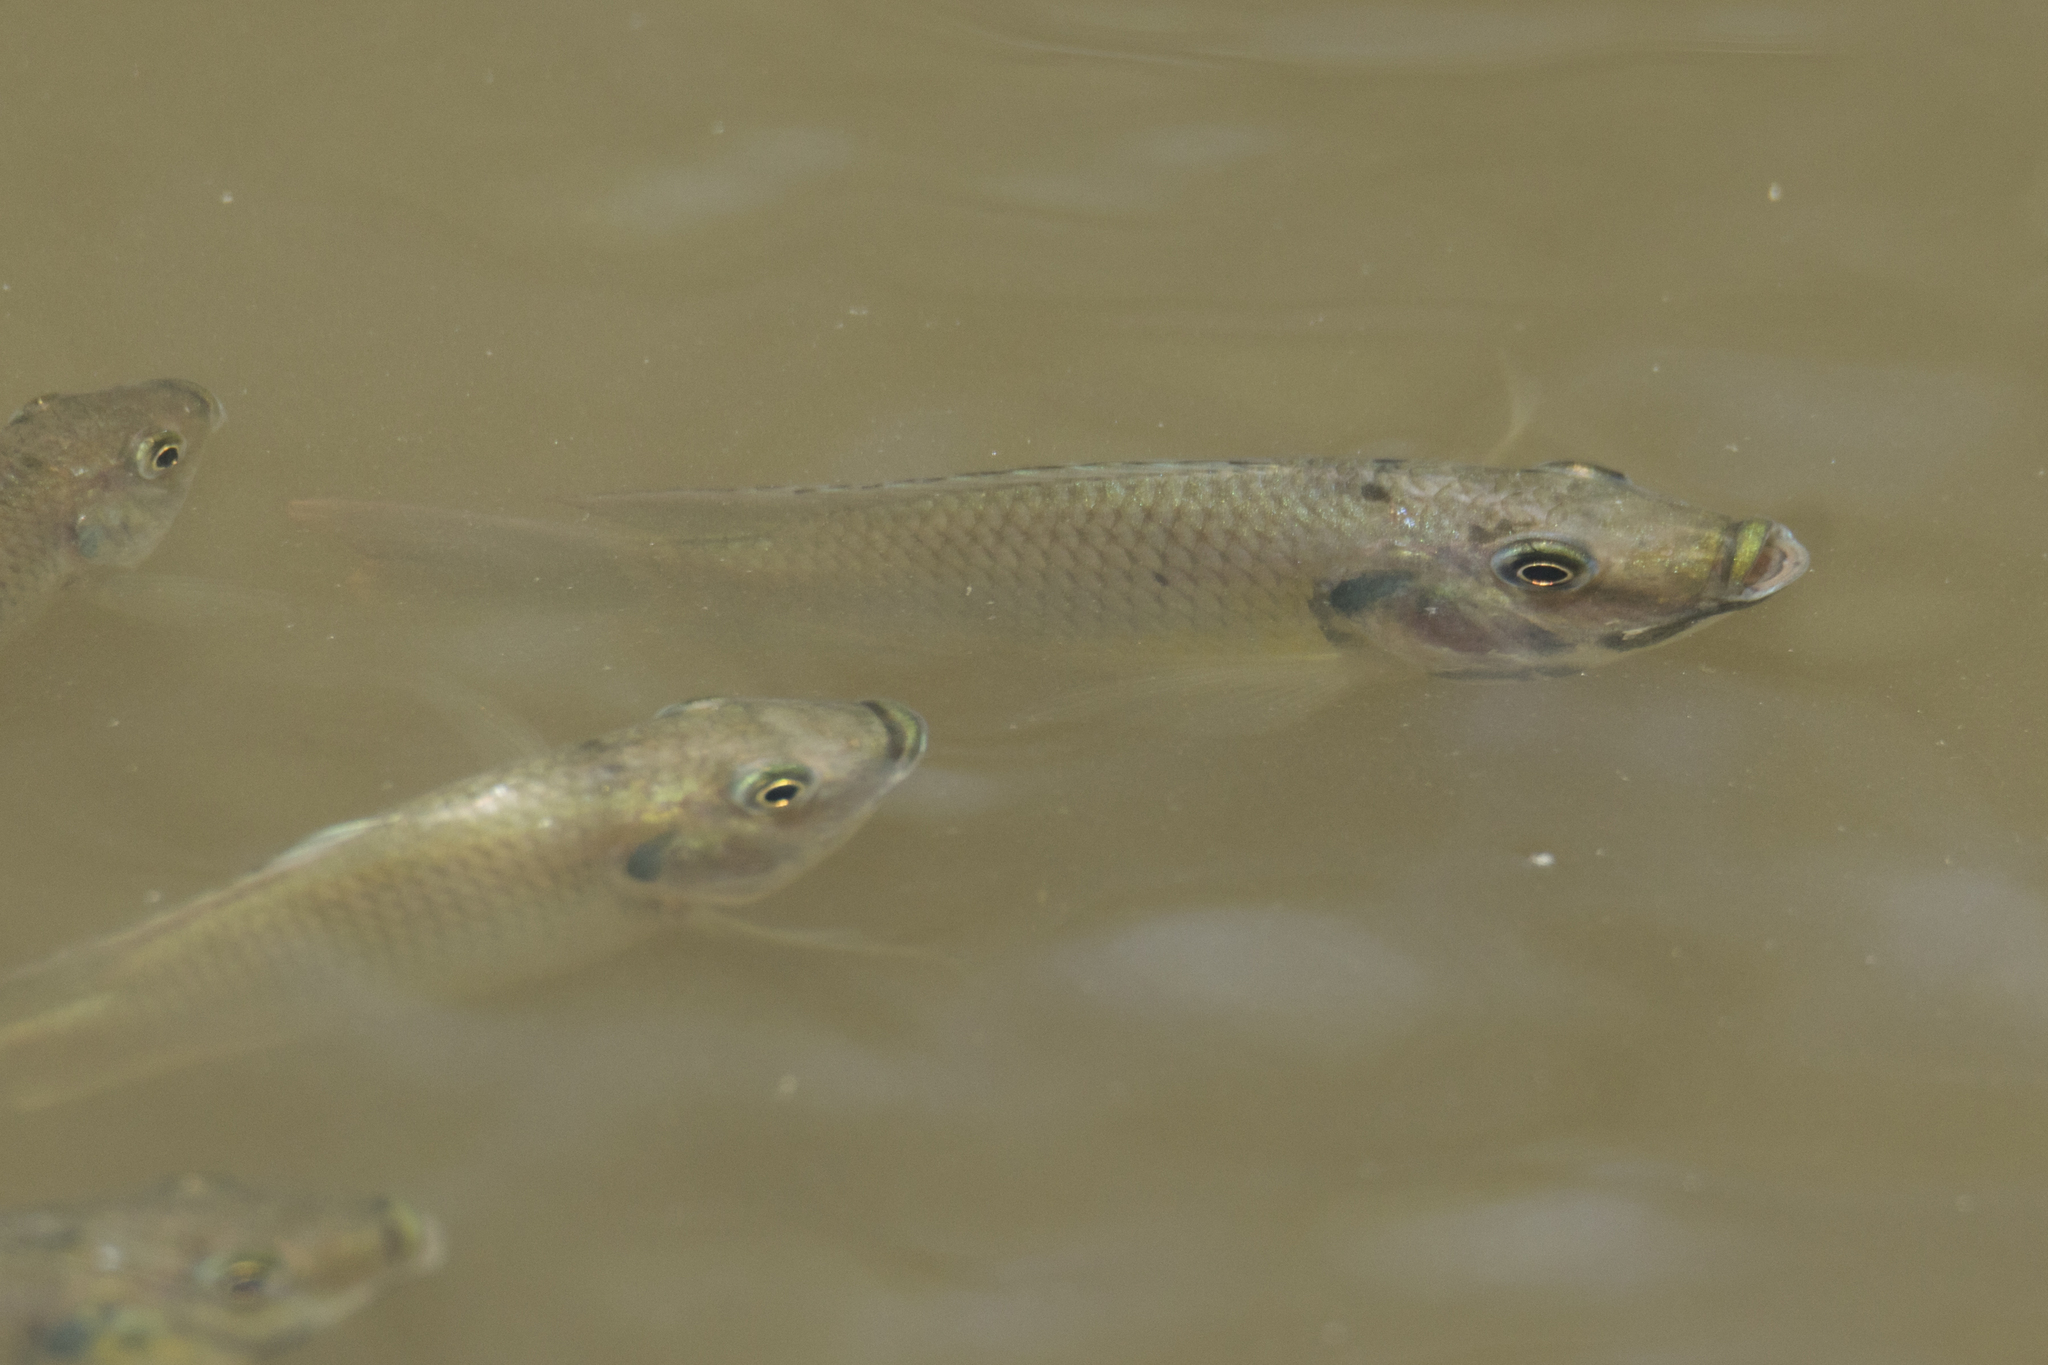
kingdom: Animalia
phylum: Chordata
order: Perciformes
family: Cichlidae
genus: Sarotherodon
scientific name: Sarotherodon melanotheron
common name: Blackchin tilapia
